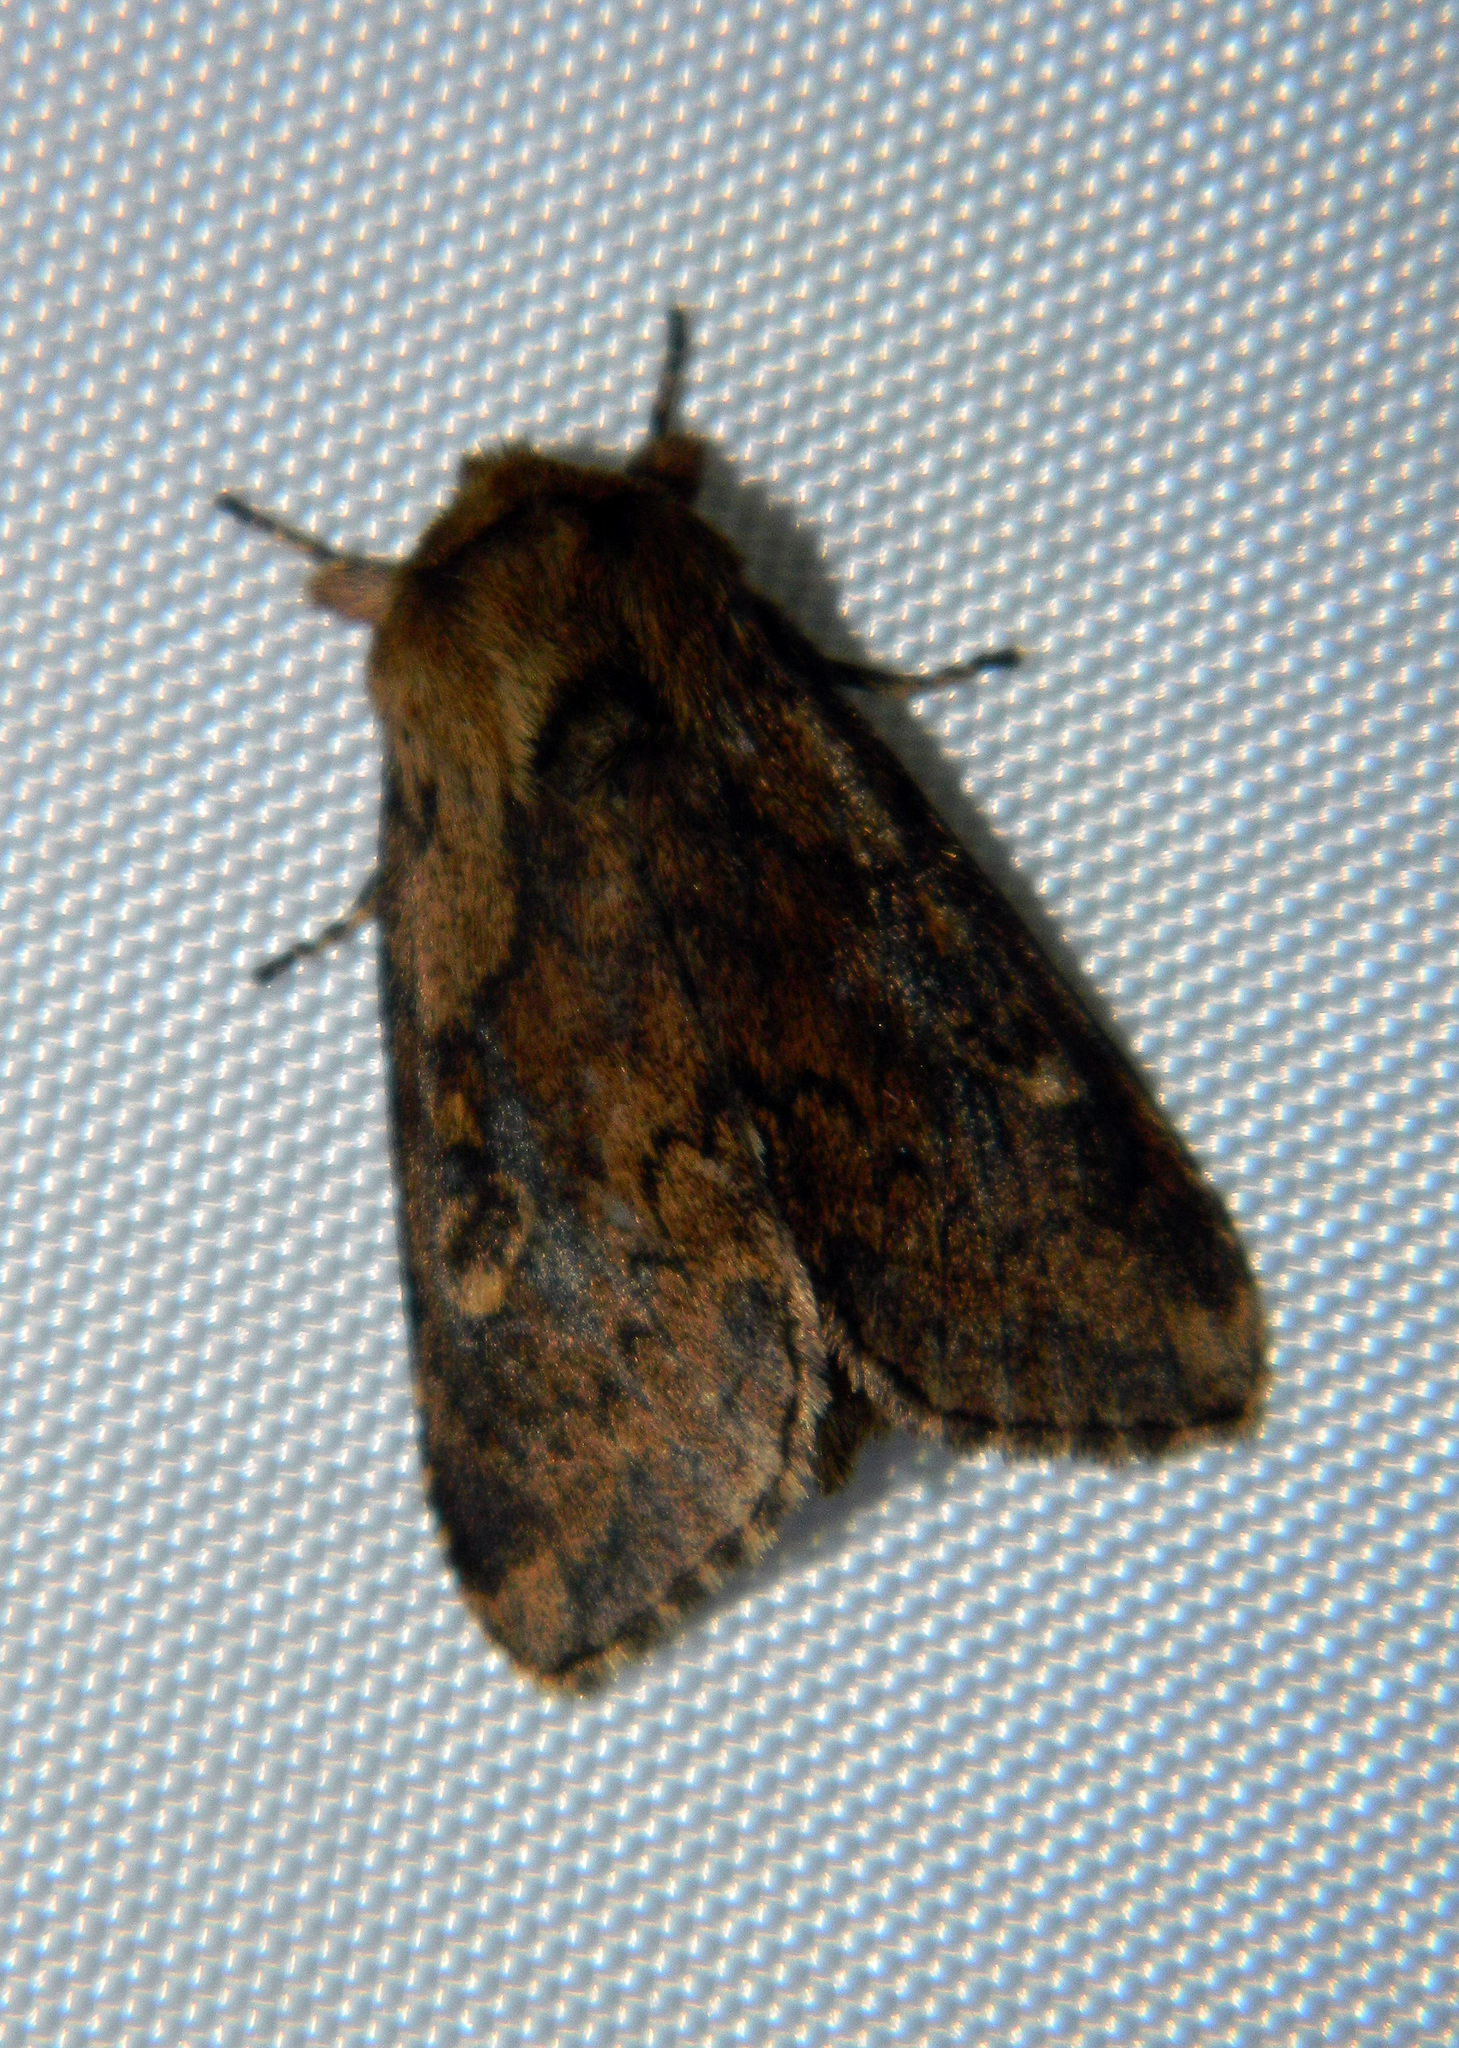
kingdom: Animalia
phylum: Arthropoda
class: Insecta
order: Lepidoptera
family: Noctuidae
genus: Bellura
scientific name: Bellura vulnifica
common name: Black-tailed diver moth
